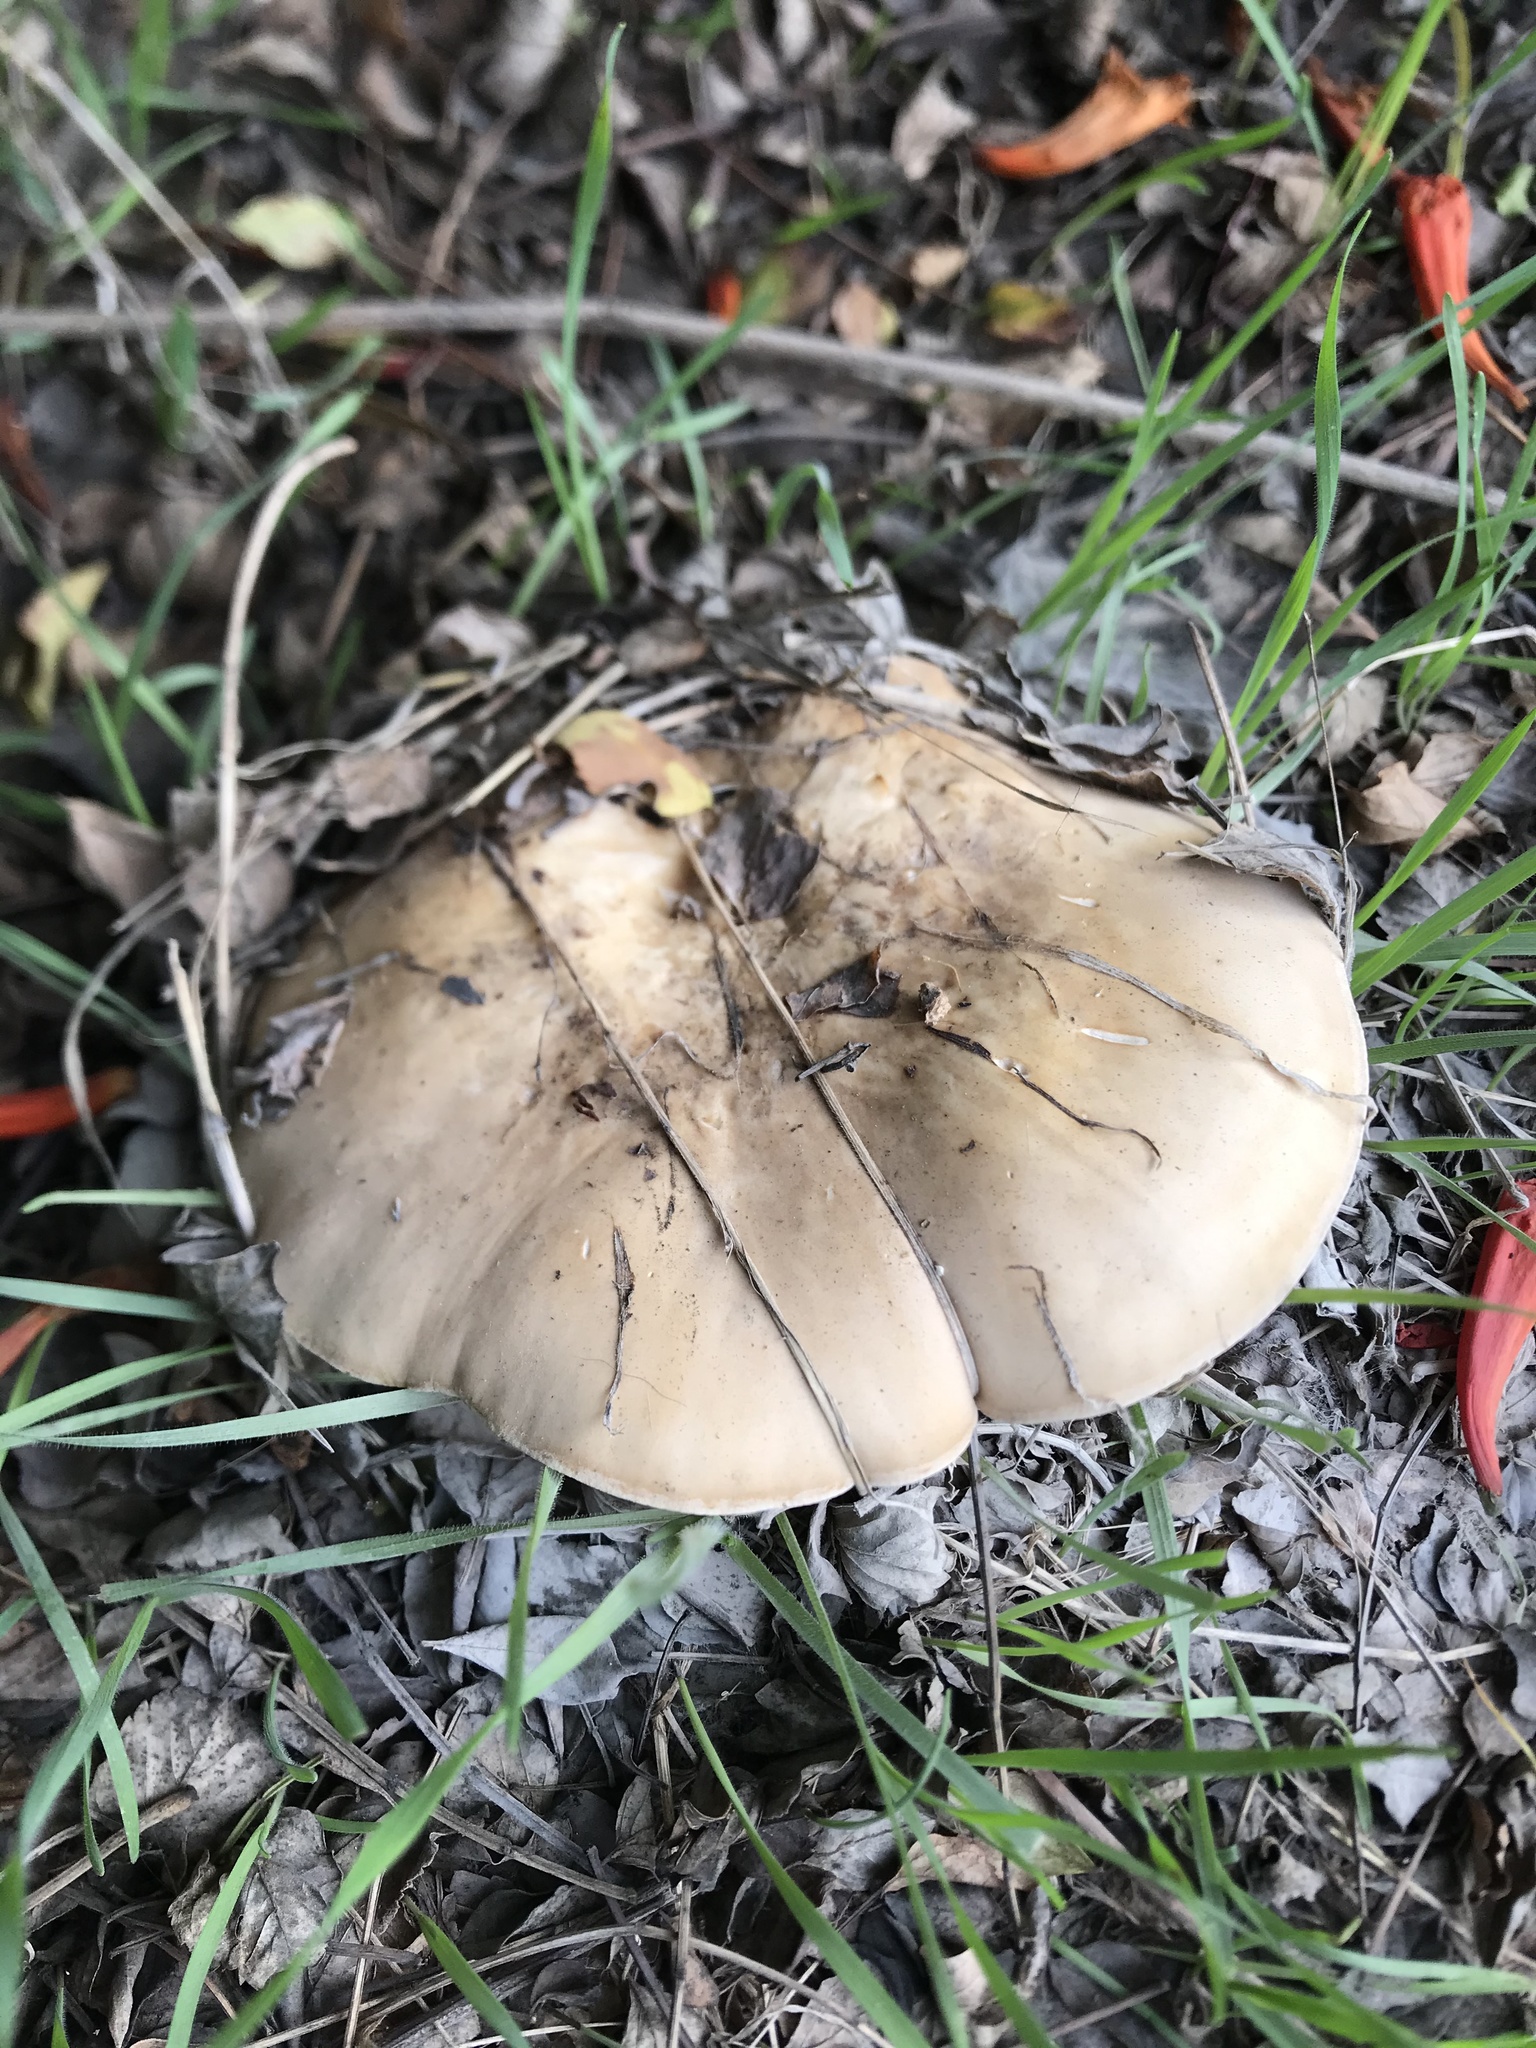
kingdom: Fungi
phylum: Basidiomycota
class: Agaricomycetes
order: Agaricales
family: Tricholomataceae
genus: Collybia
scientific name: Collybia
